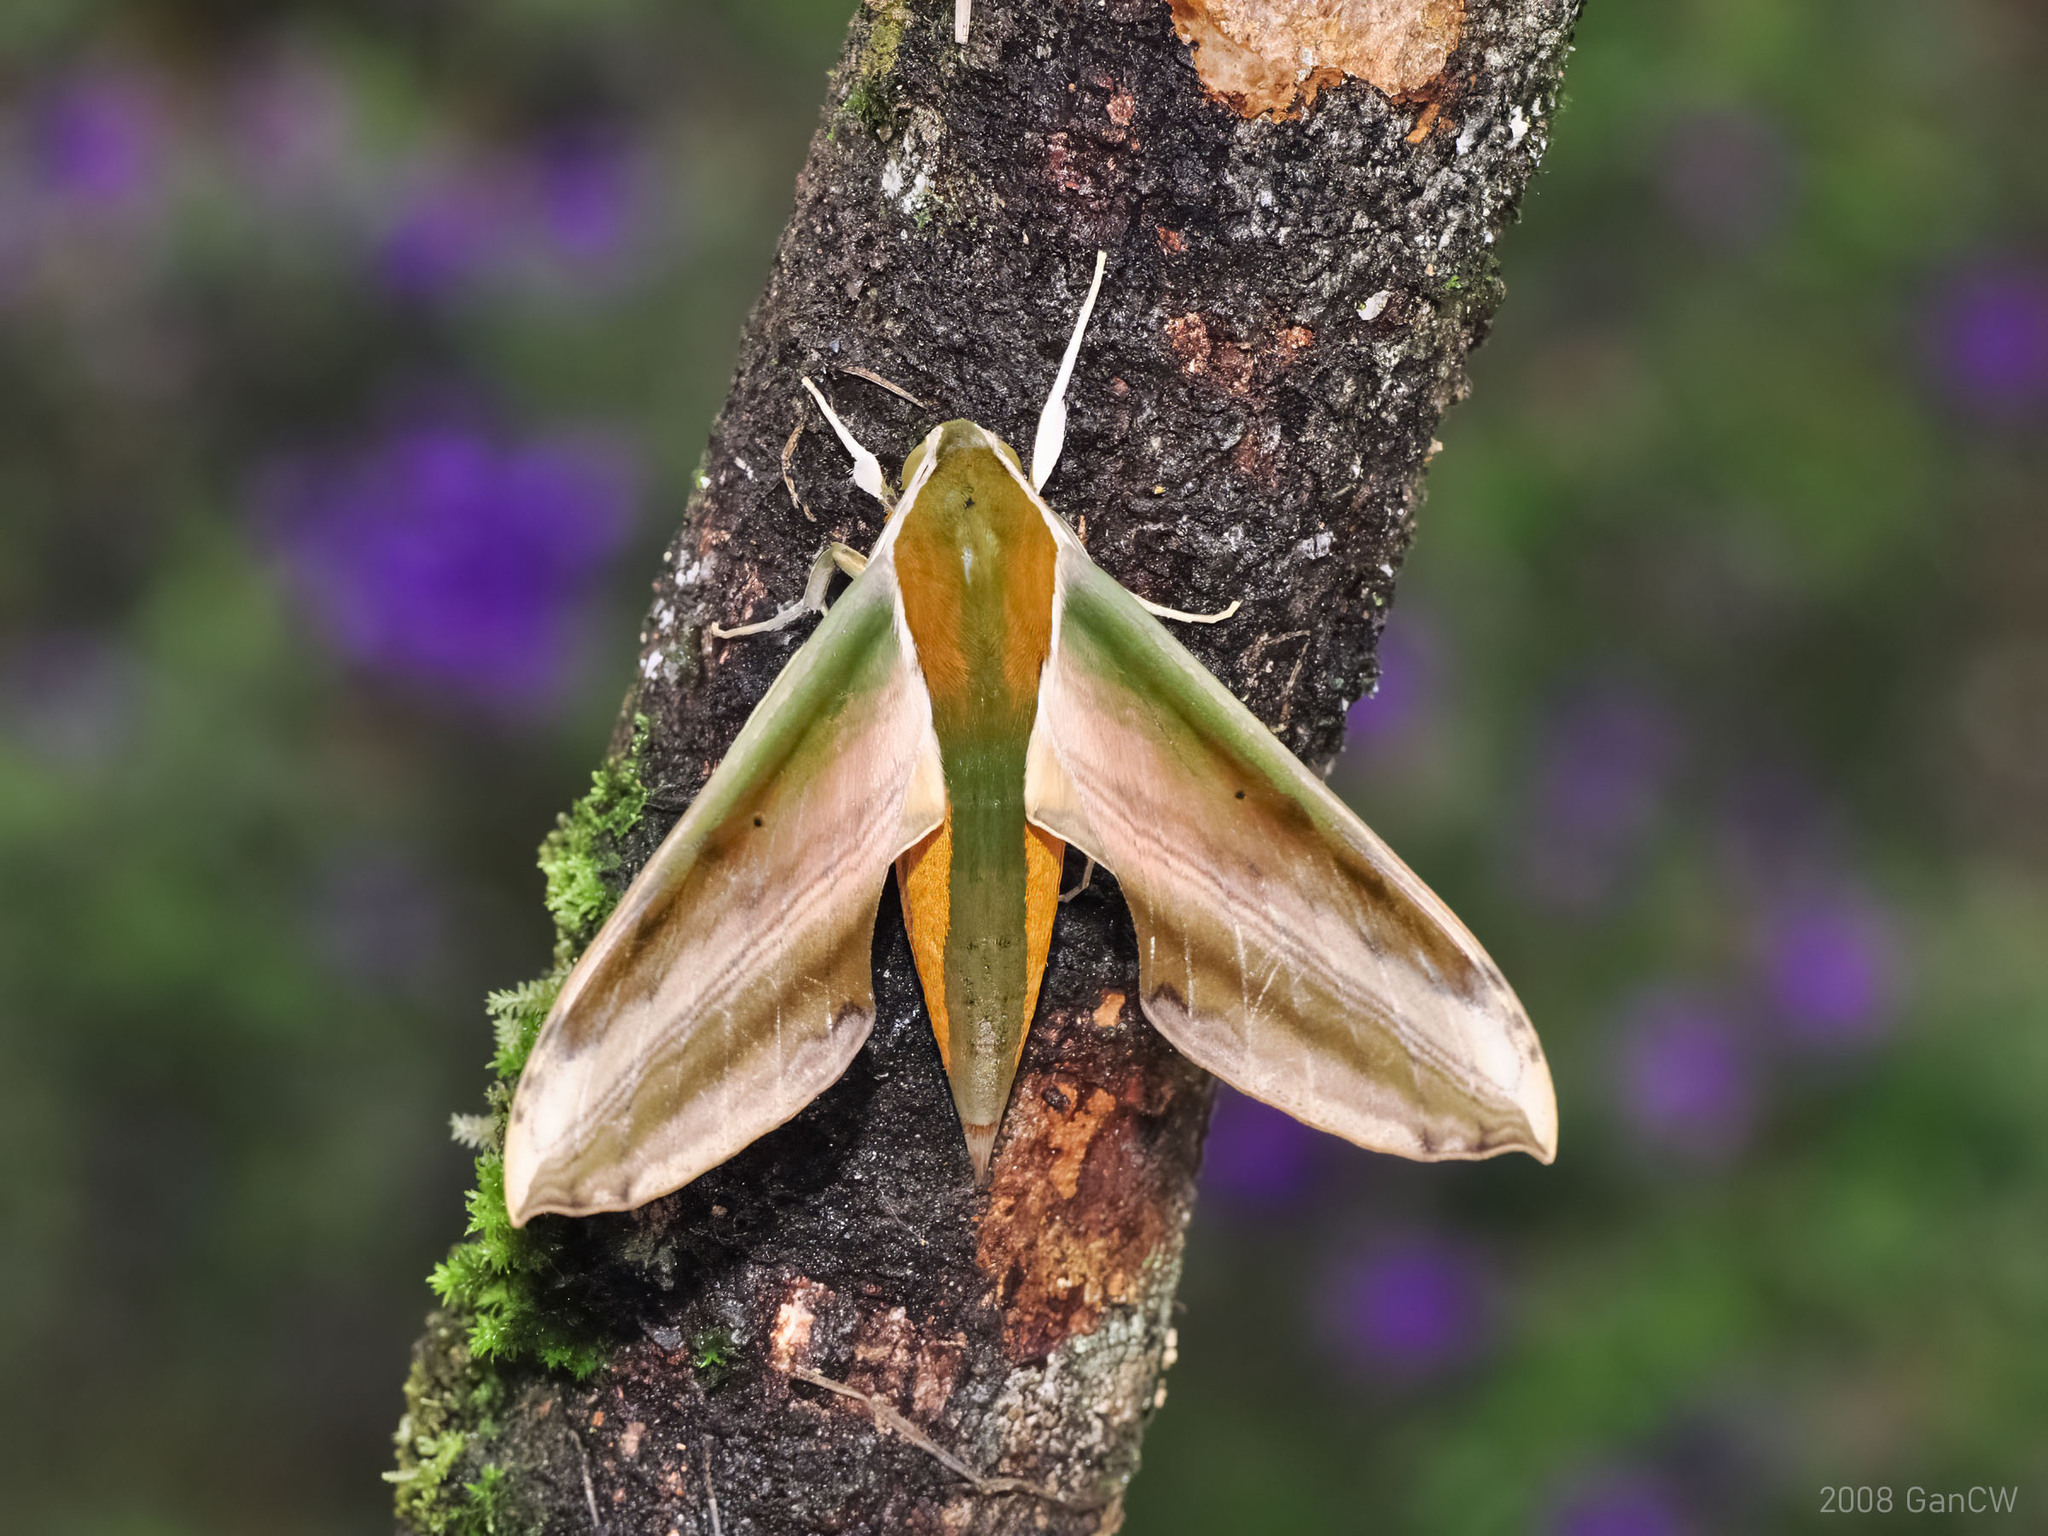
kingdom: Animalia
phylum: Arthropoda
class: Insecta
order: Lepidoptera
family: Sphingidae
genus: Theretra
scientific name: Theretra nessus
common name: Yam hawk moth
